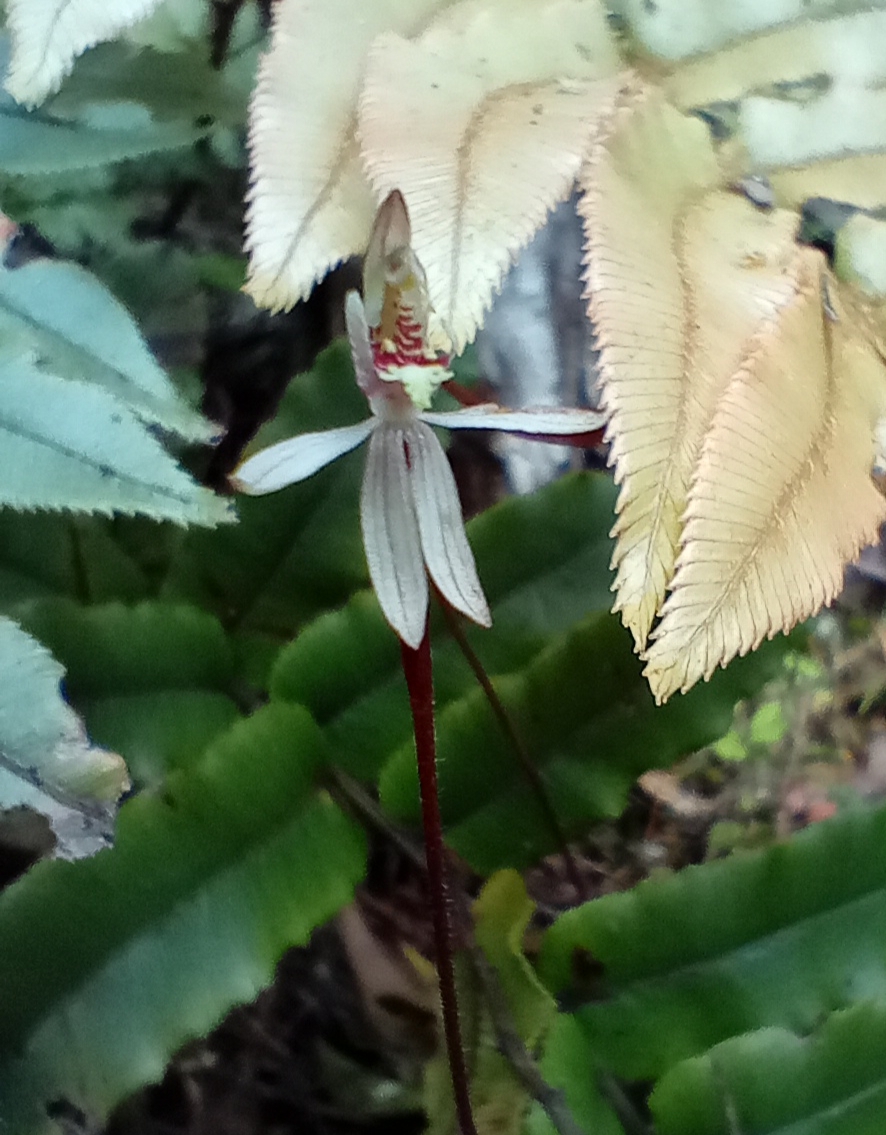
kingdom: Plantae
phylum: Tracheophyta
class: Liliopsida
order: Asparagales
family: Orchidaceae
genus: Caladenia
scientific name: Caladenia chlorostyla
